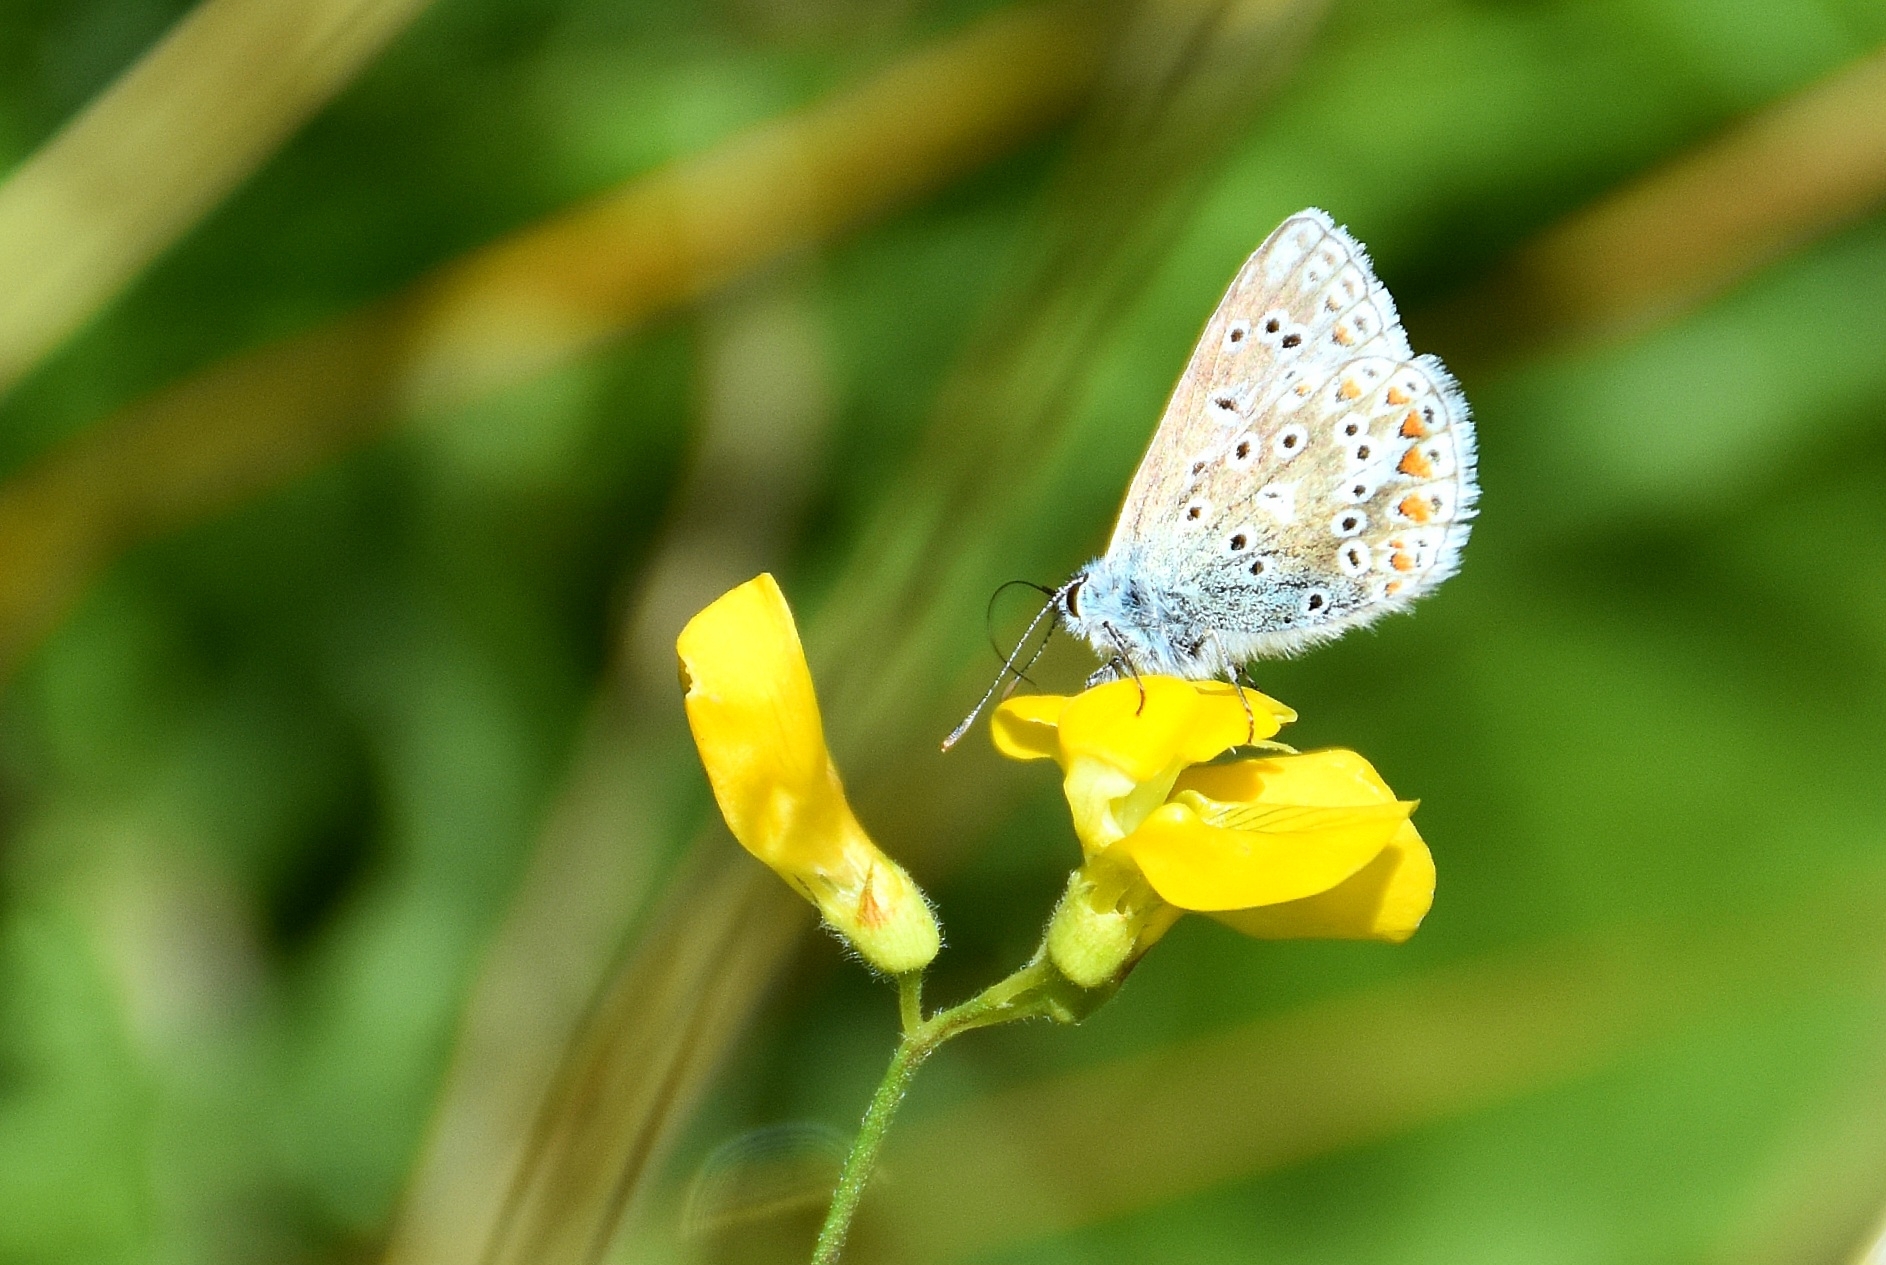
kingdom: Animalia
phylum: Arthropoda
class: Insecta
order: Lepidoptera
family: Lycaenidae
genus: Polyommatus
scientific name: Polyommatus icarus
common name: Common blue
